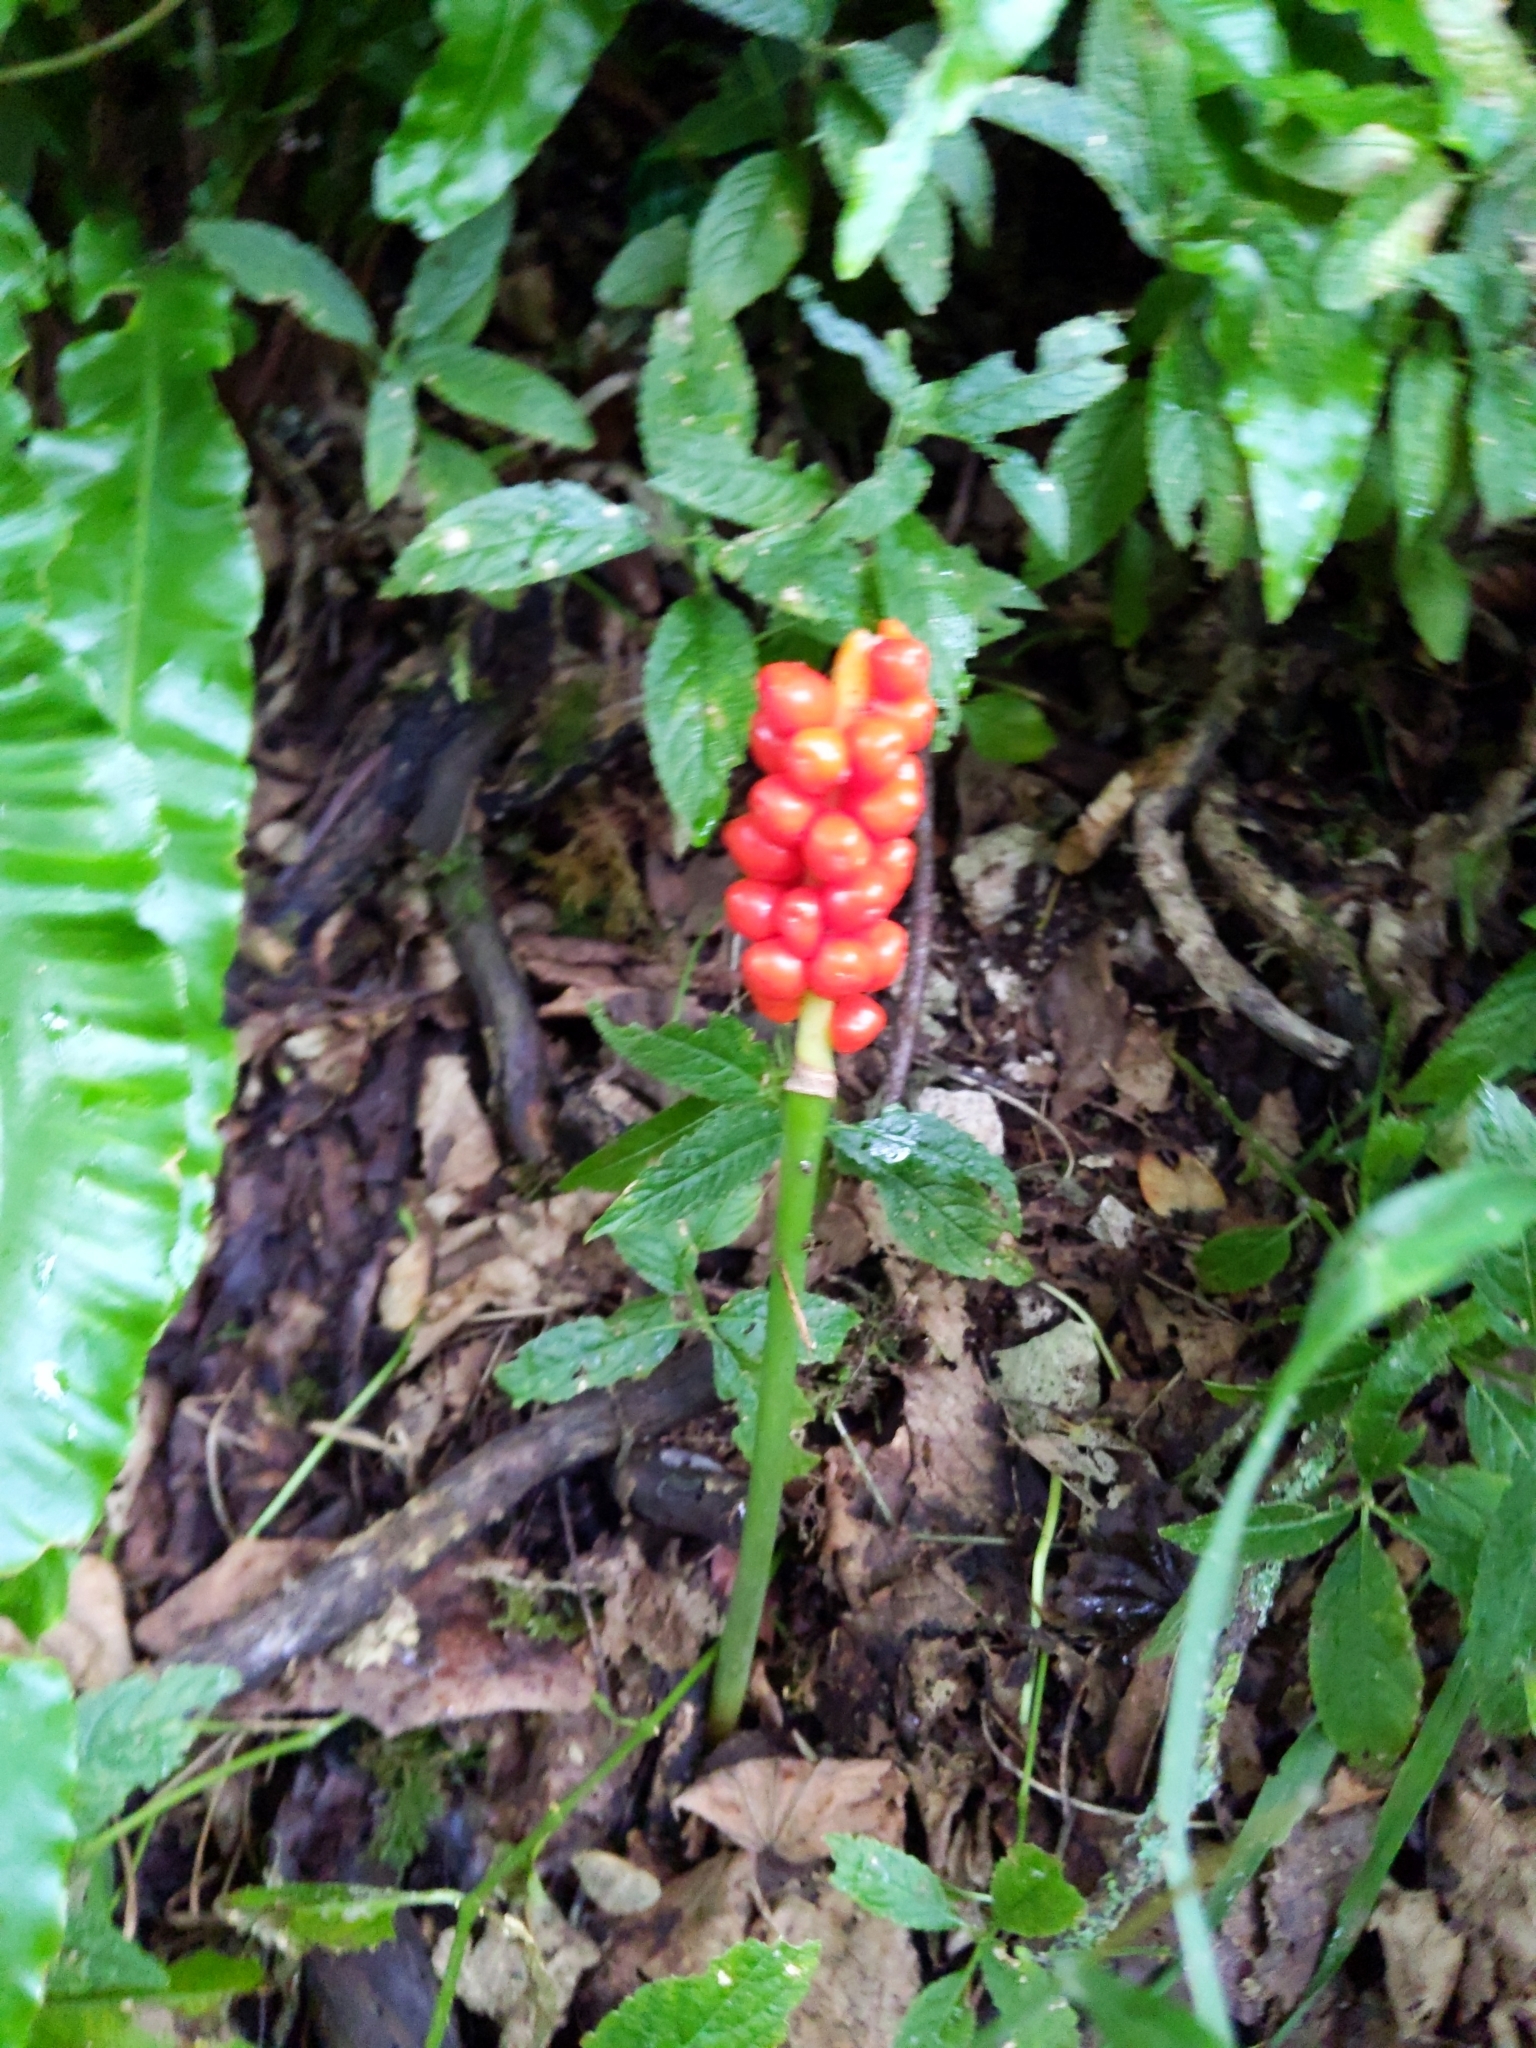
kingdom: Plantae
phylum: Tracheophyta
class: Liliopsida
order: Alismatales
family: Araceae
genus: Arum
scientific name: Arum maculatum
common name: Lords-and-ladies
